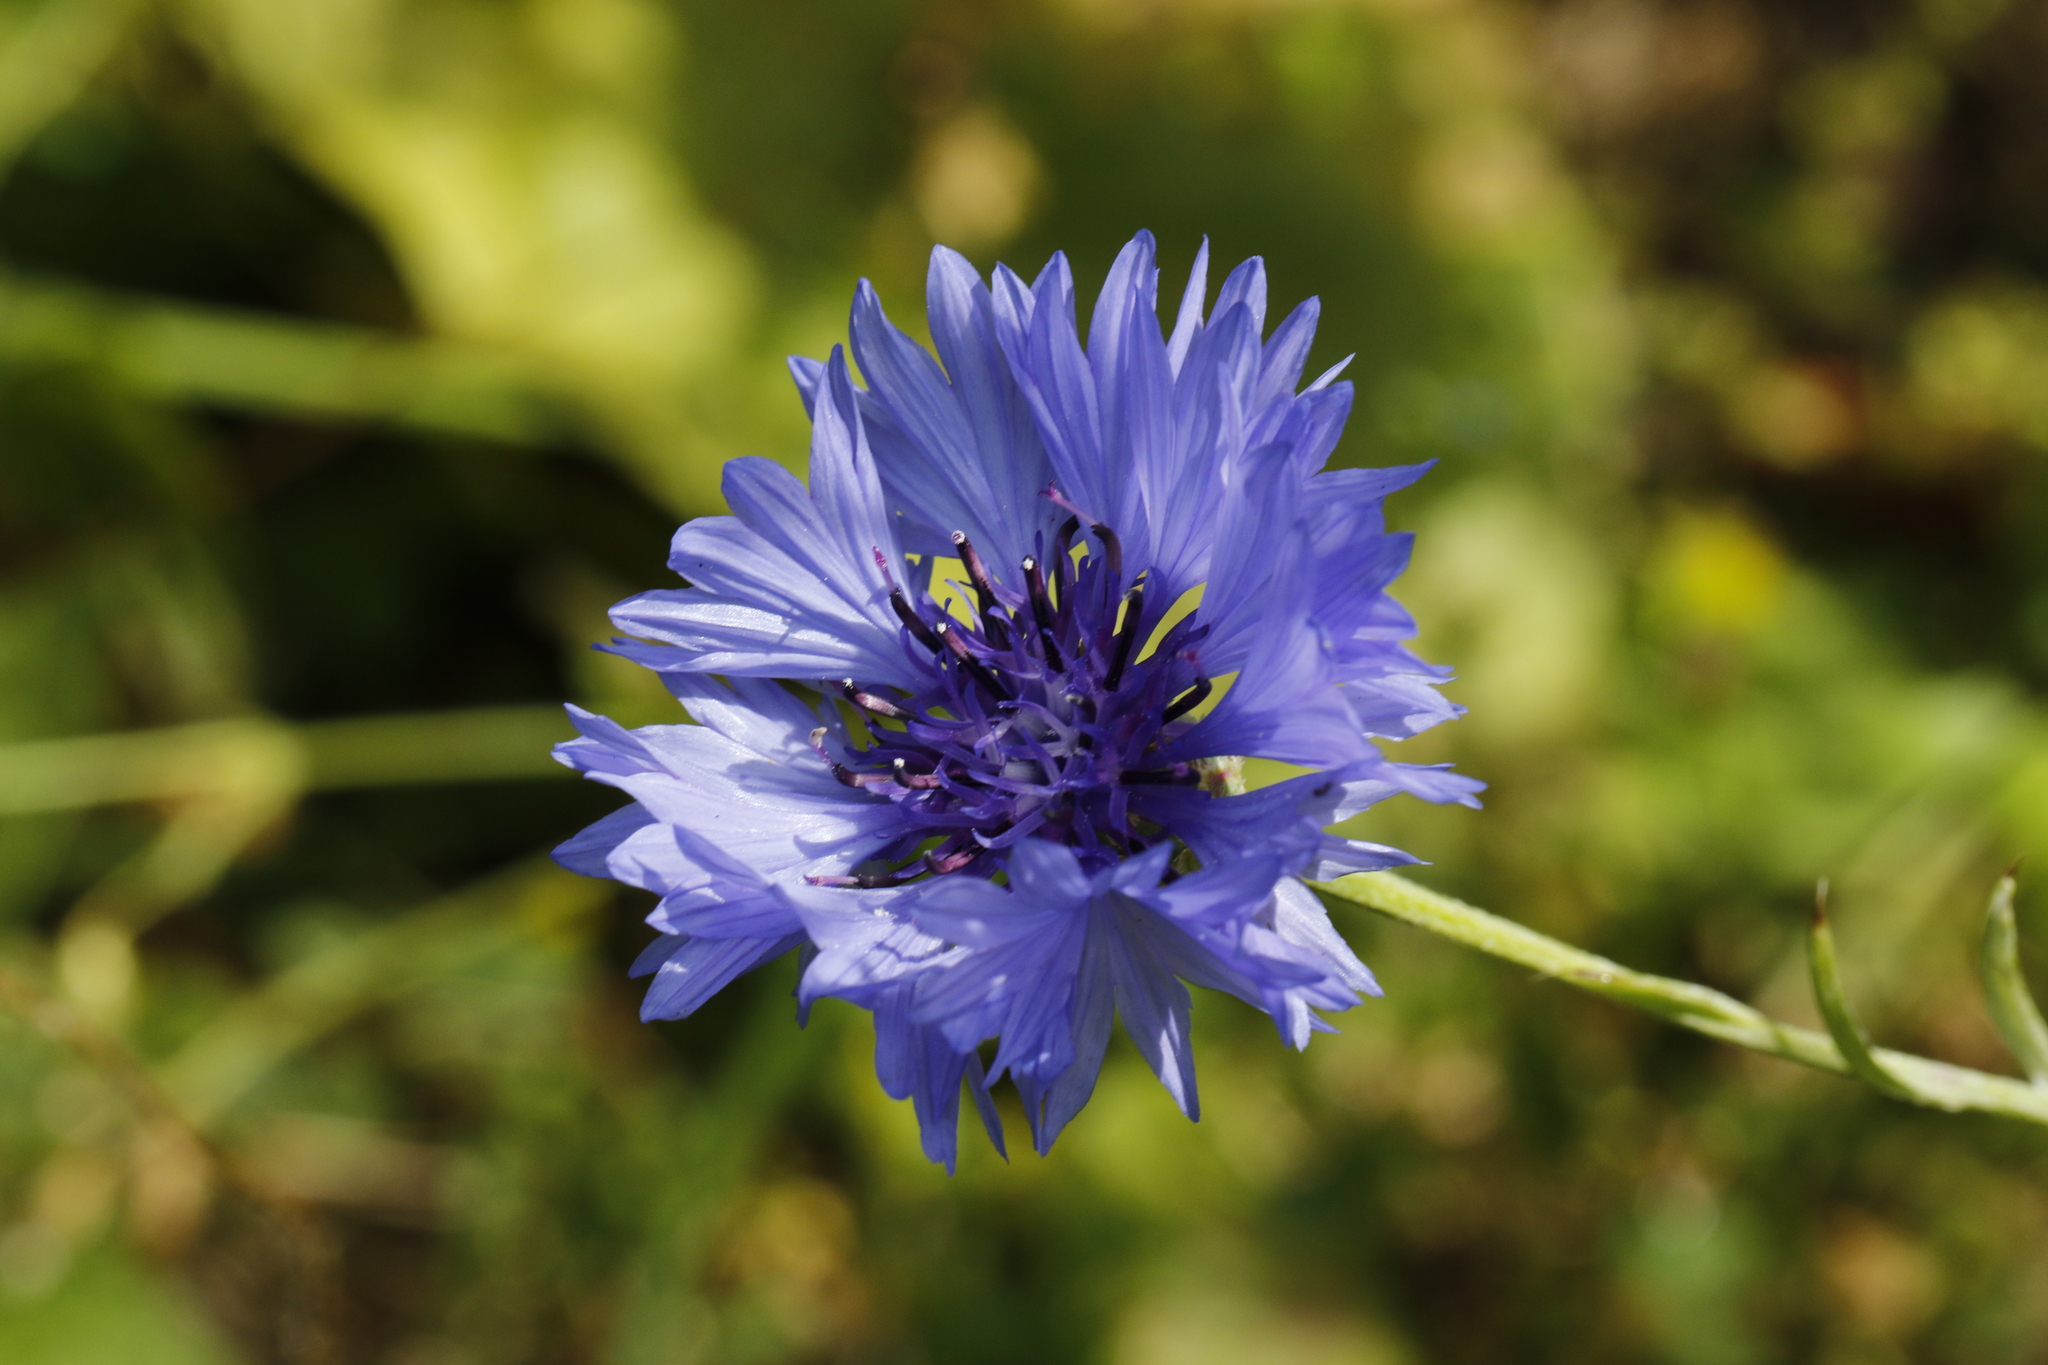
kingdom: Plantae
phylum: Tracheophyta
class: Magnoliopsida
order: Asterales
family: Asteraceae
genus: Centaurea
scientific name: Centaurea cyanus
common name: Cornflower
